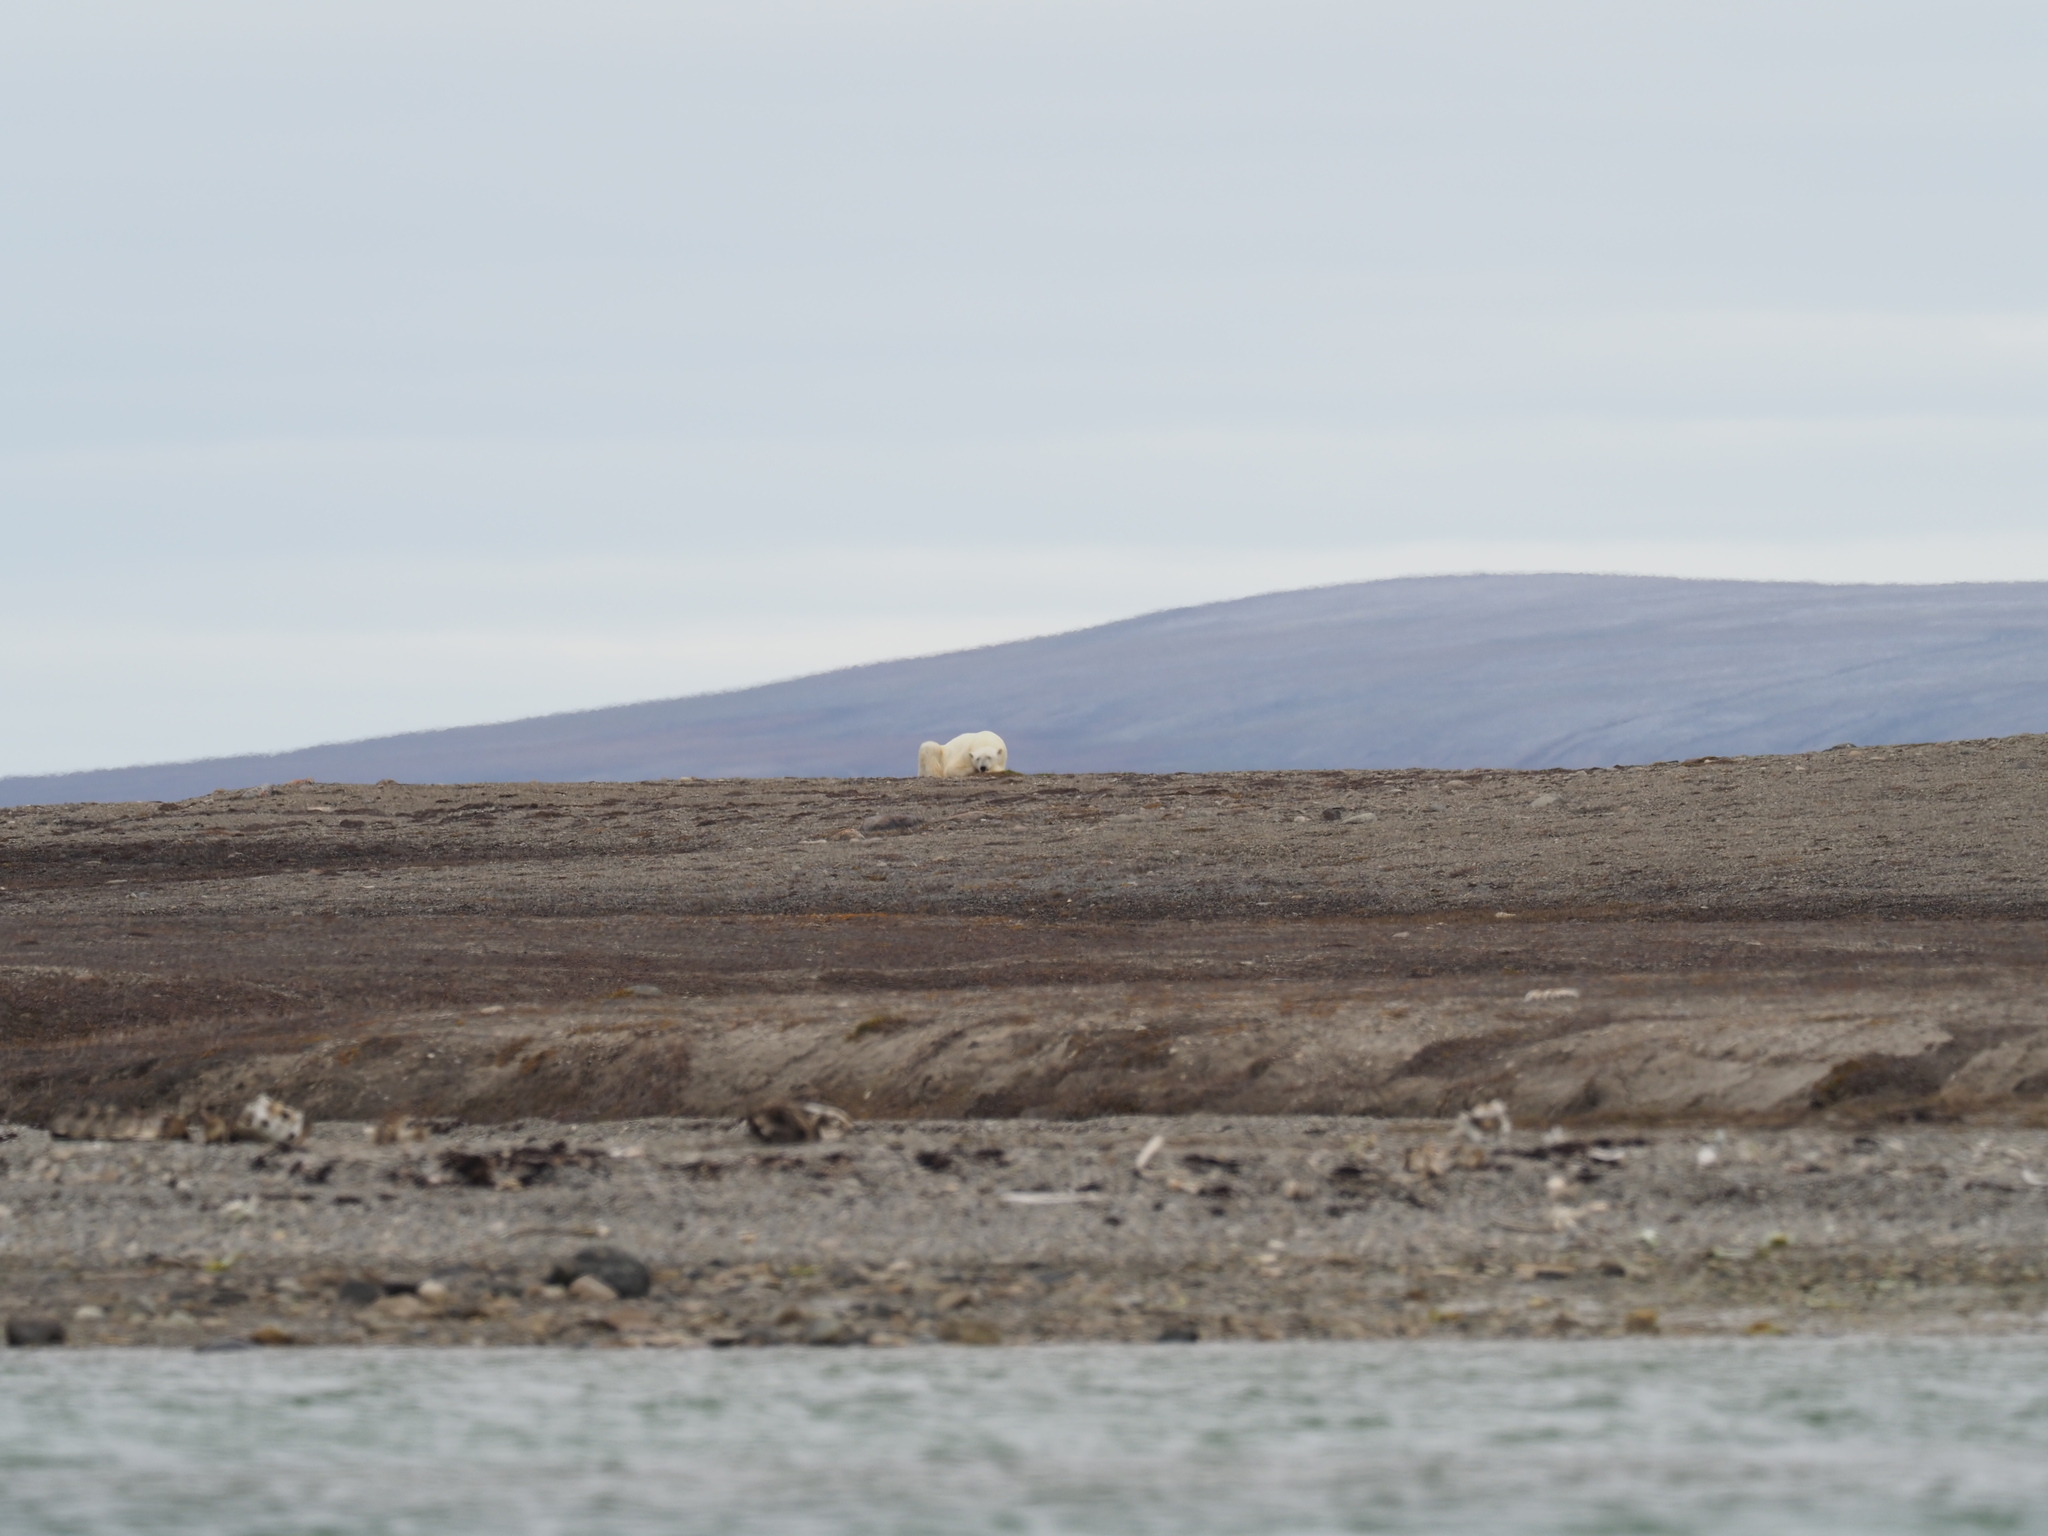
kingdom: Animalia
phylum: Chordata
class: Mammalia
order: Carnivora
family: Ursidae
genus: Ursus
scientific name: Ursus maritimus
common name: Polar bear
